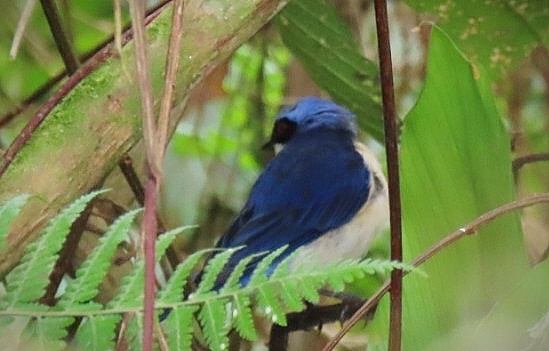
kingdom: Animalia
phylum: Chordata
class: Aves
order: Passeriformes
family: Thraupidae
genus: Pipraeidea
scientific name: Pipraeidea melanonota
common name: Fawn-breasted tanager
